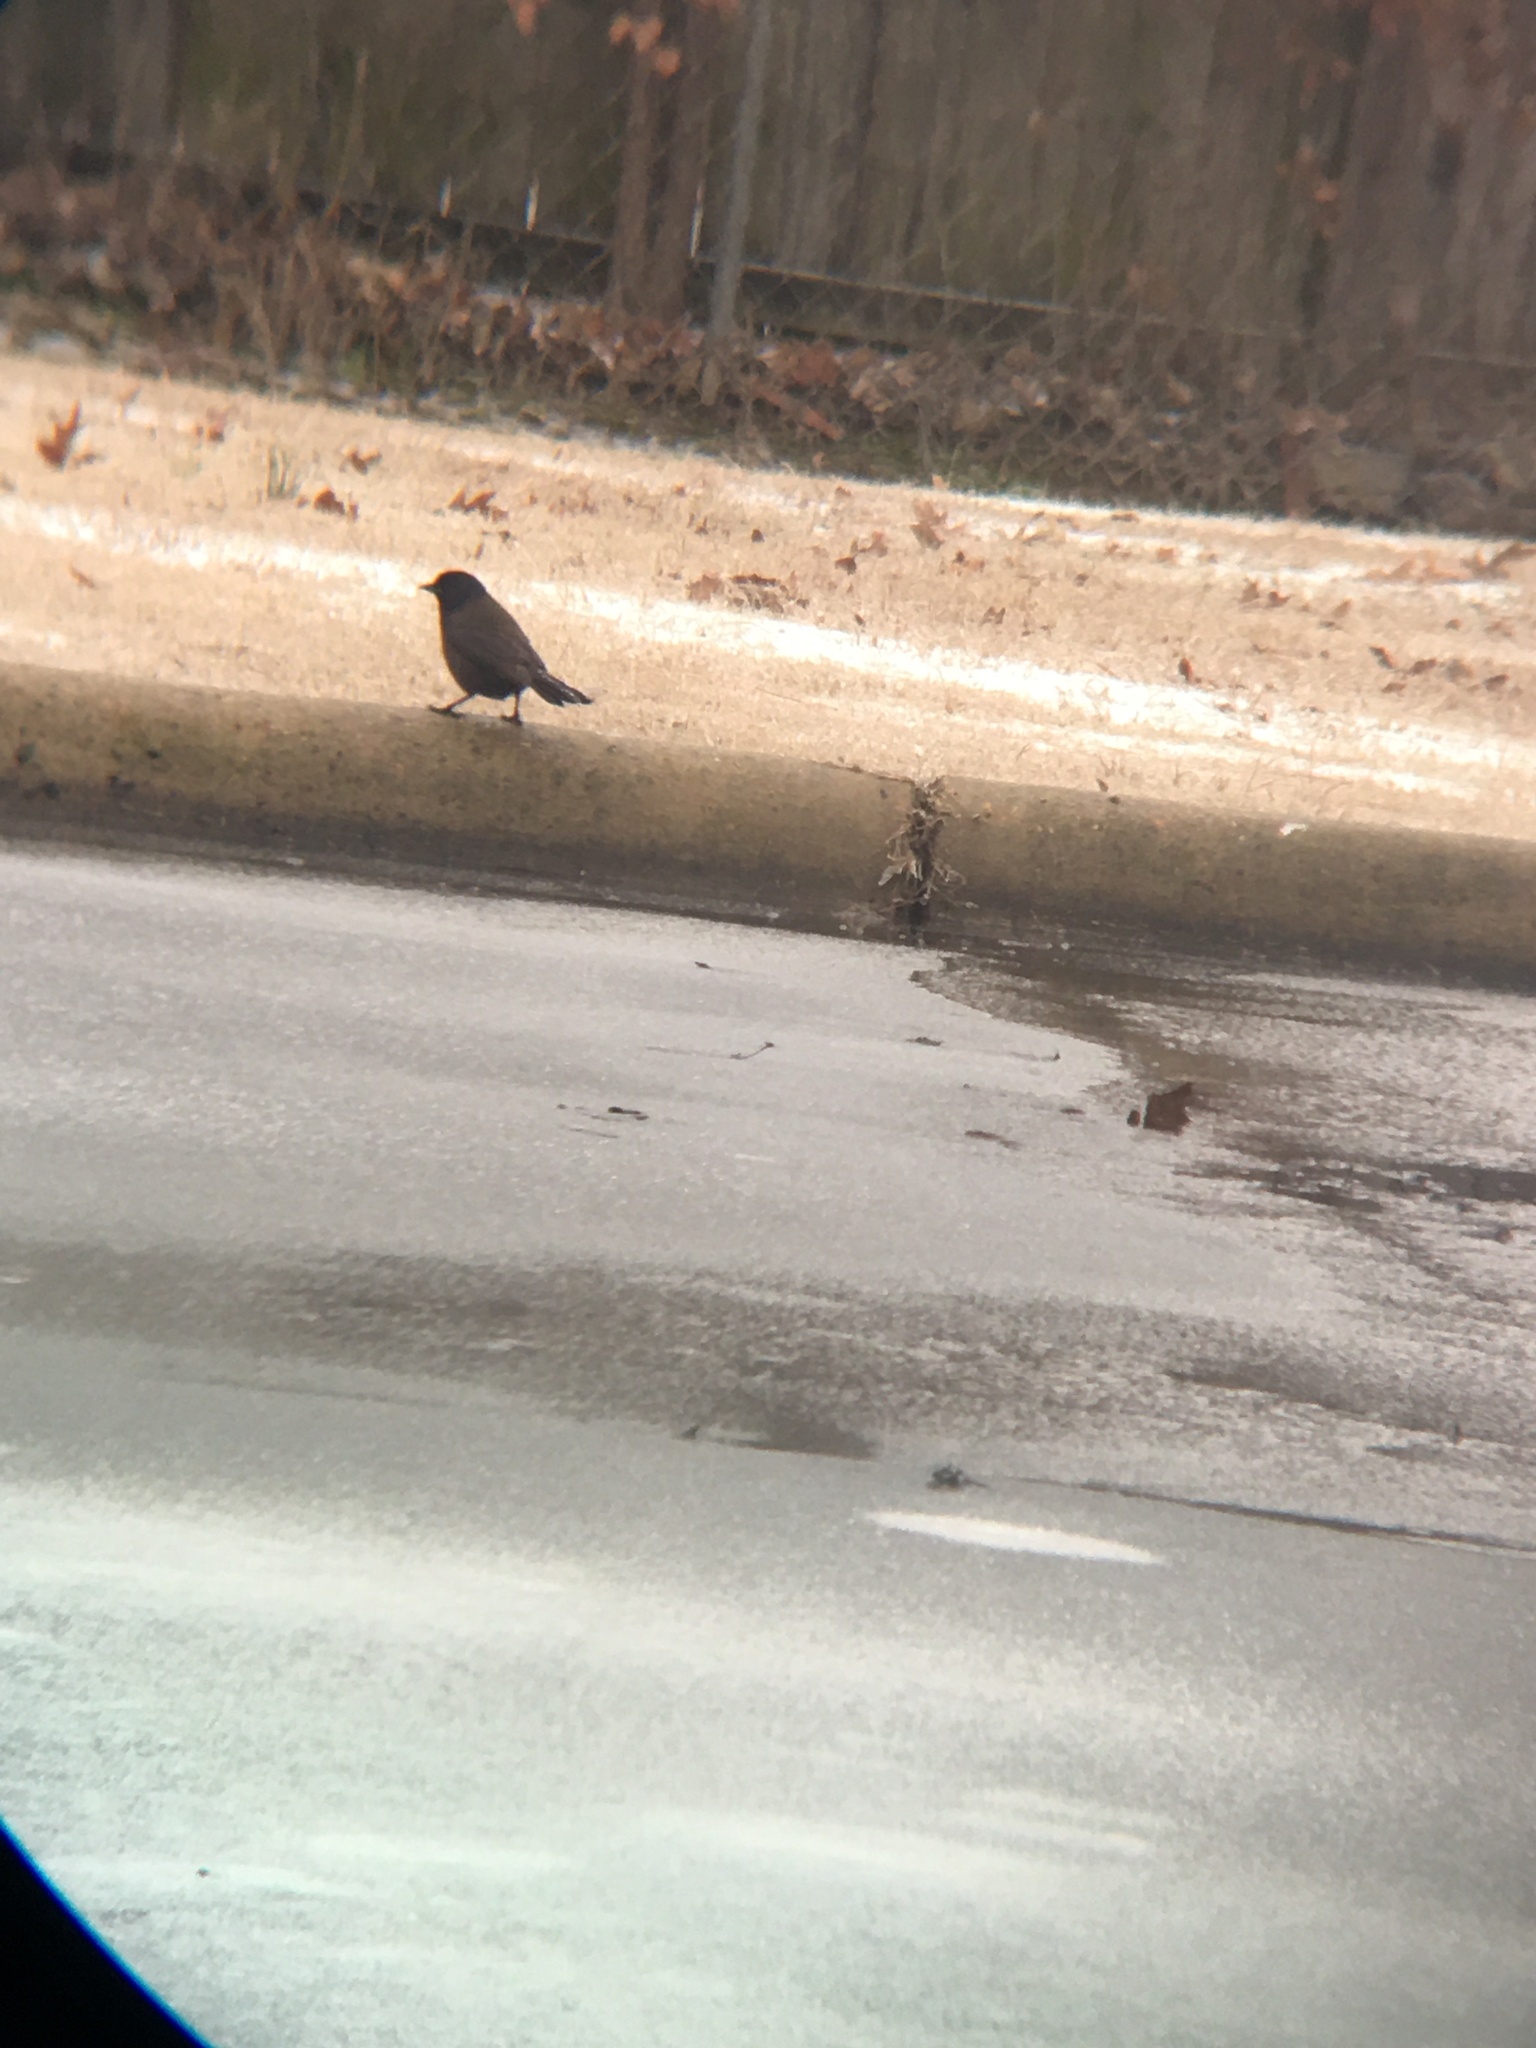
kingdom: Animalia
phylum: Chordata
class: Aves
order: Passeriformes
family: Icteridae
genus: Euphagus
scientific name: Euphagus carolinus
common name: Rusty blackbird
